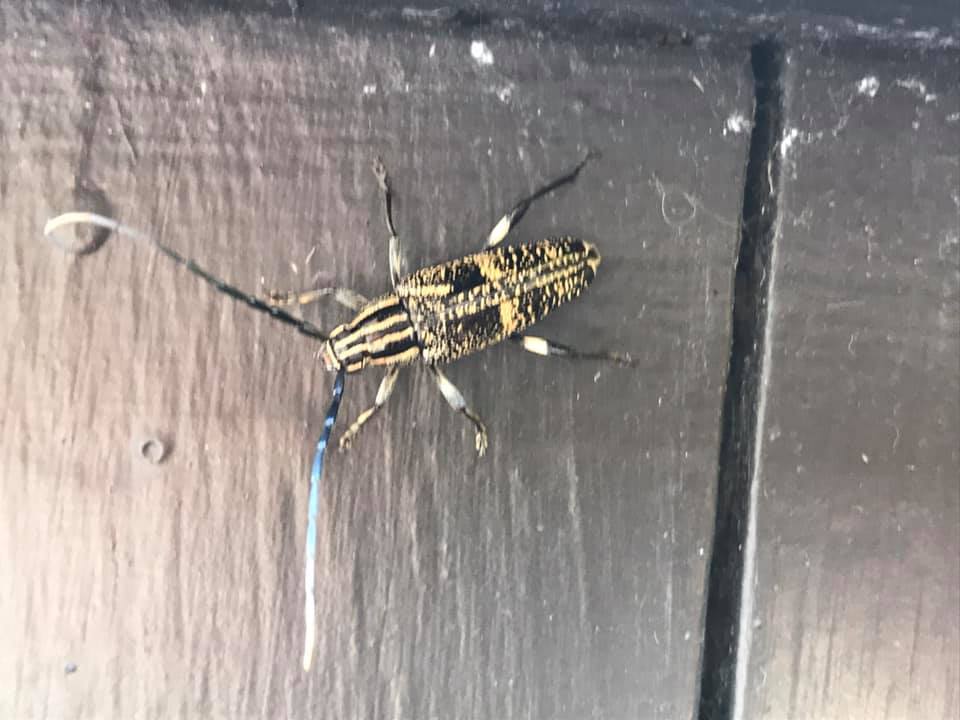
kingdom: Animalia
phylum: Arthropoda
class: Insecta
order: Coleoptera
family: Cerambycidae
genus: Coptomma
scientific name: Coptomma variegatum
